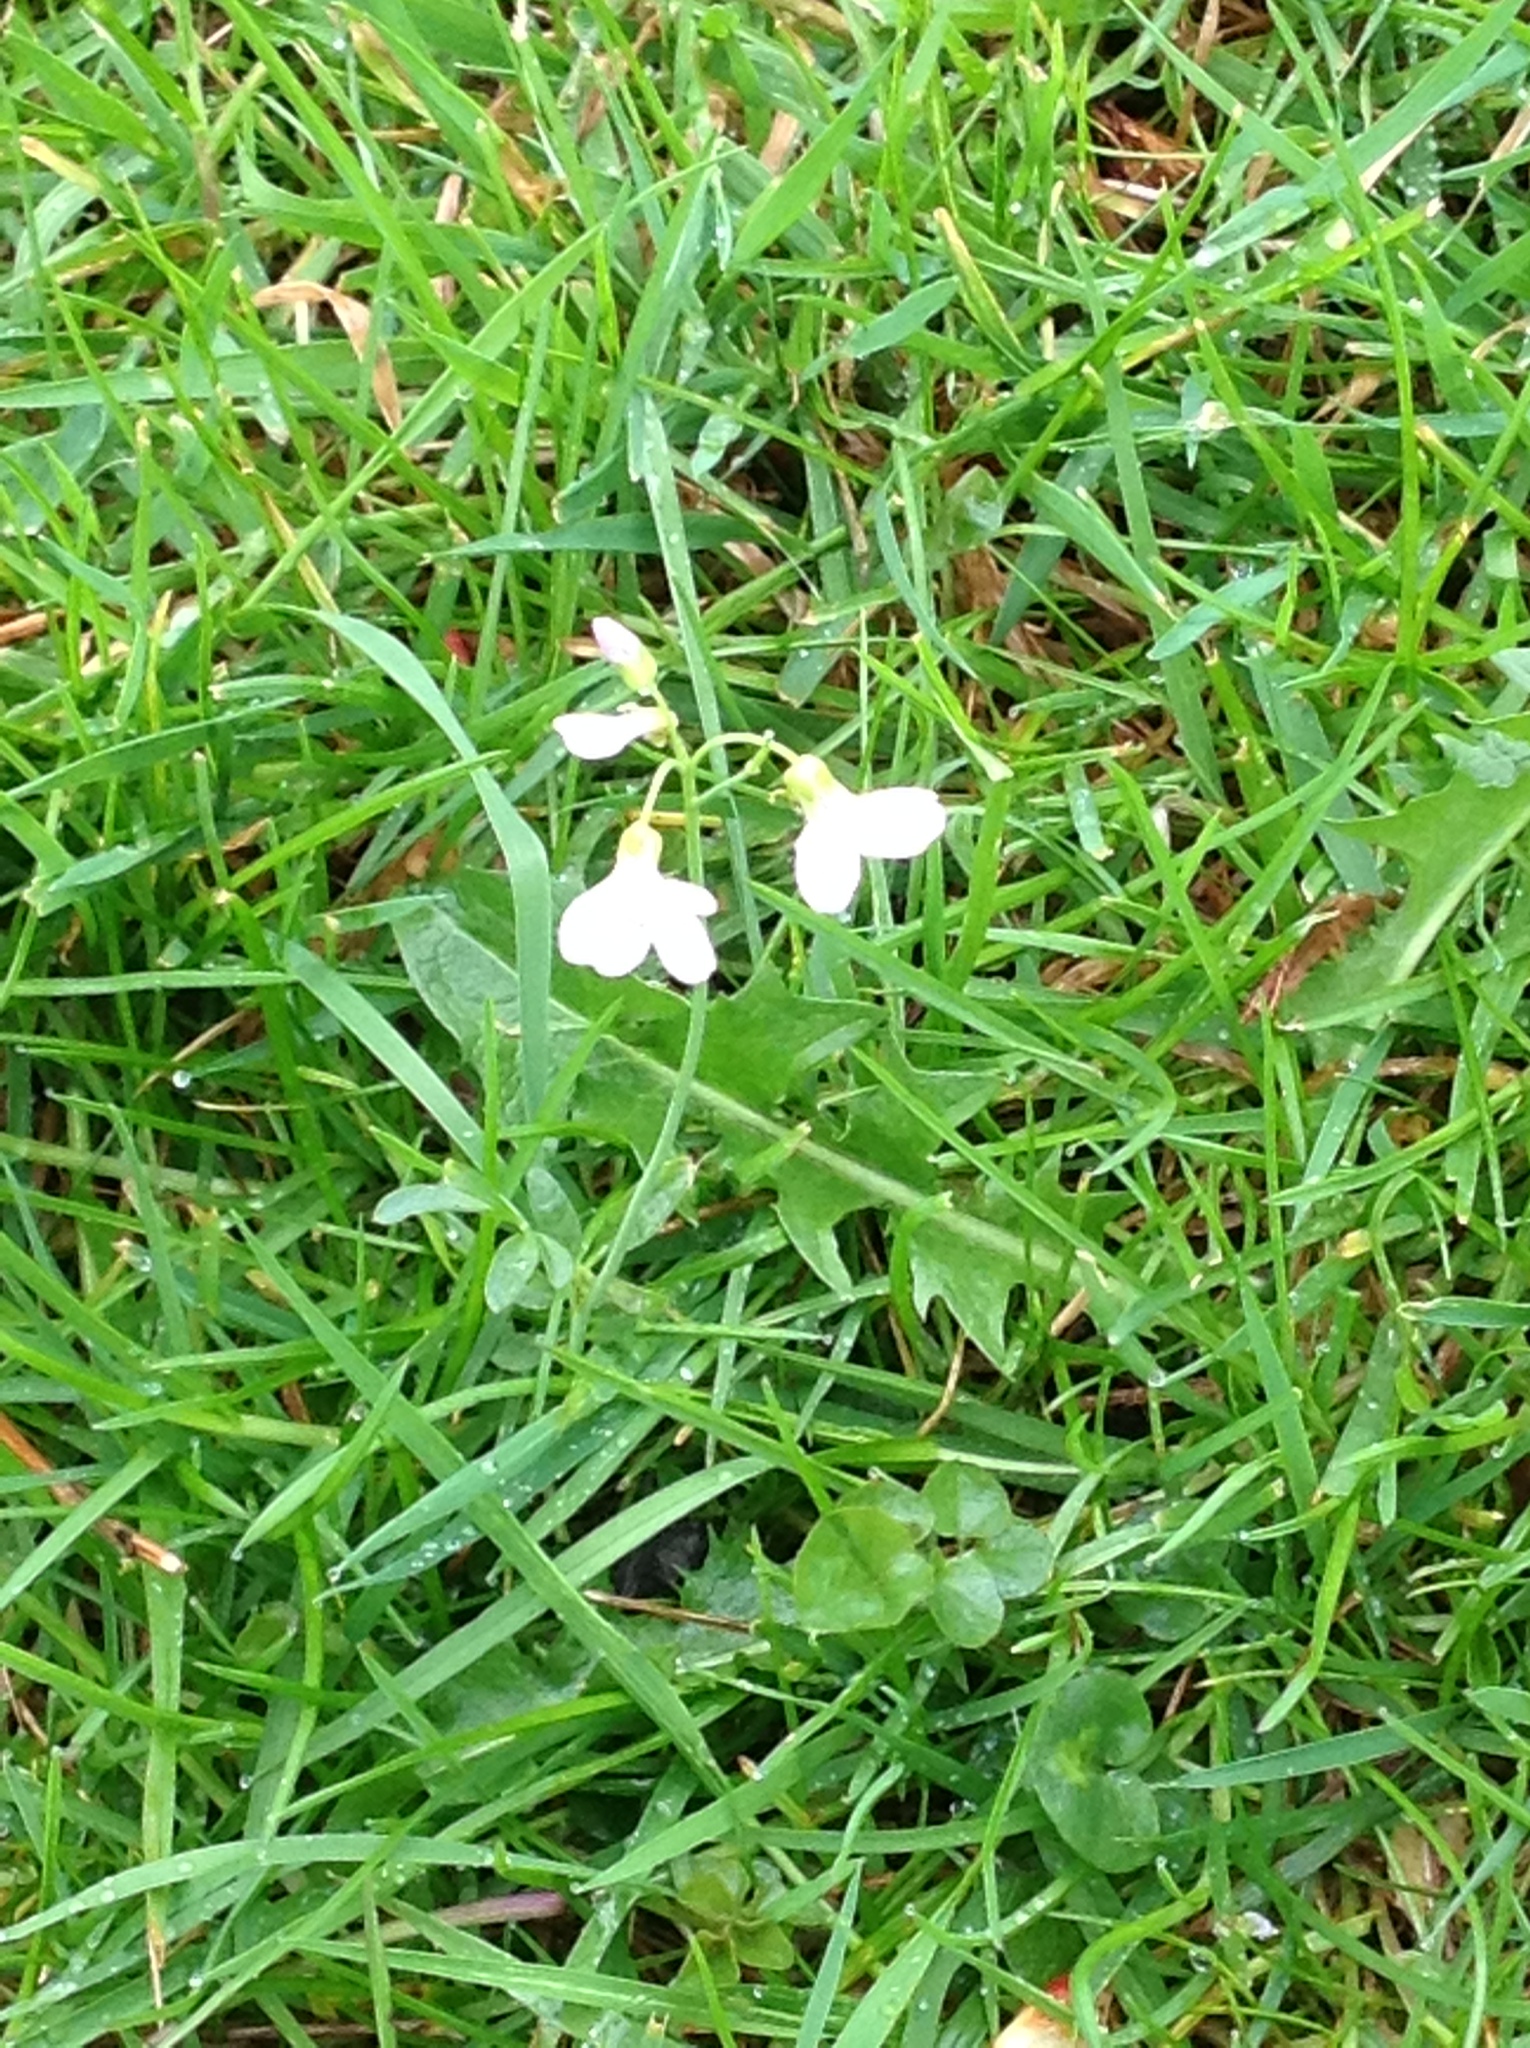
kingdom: Plantae
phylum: Tracheophyta
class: Magnoliopsida
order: Brassicales
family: Brassicaceae
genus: Cardamine
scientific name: Cardamine pratensis
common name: Cuckoo flower
